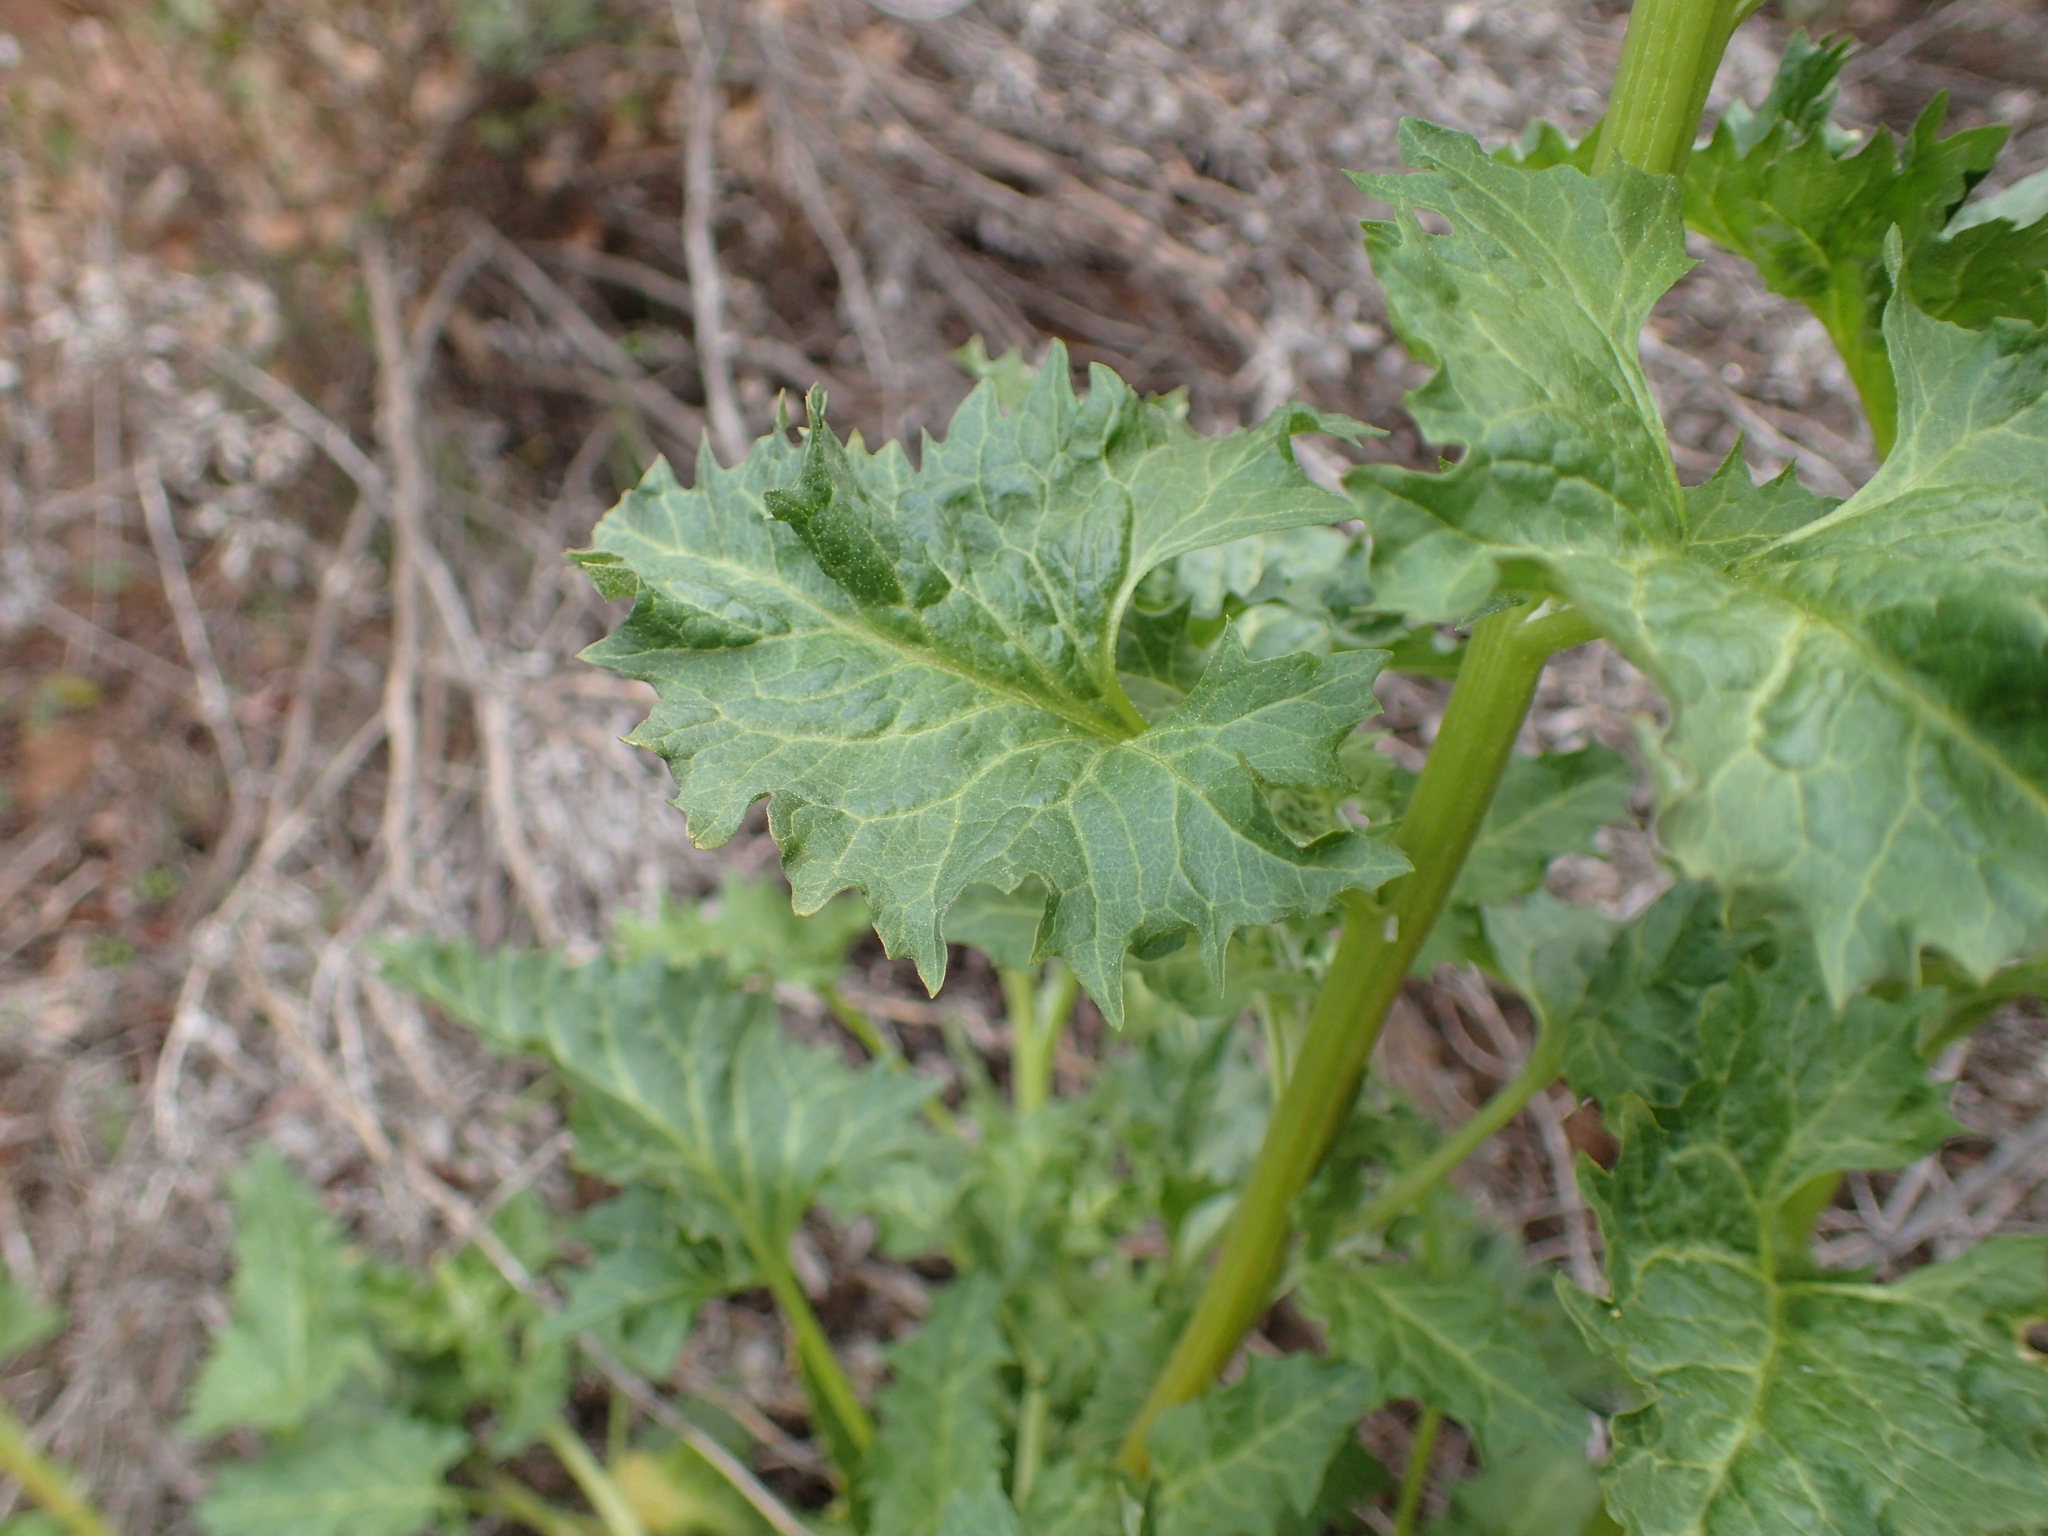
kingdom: Plantae
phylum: Tracheophyta
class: Magnoliopsida
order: Caryophyllales
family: Amaranthaceae
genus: Blitum
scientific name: Blitum californicum
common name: California goosefoot
